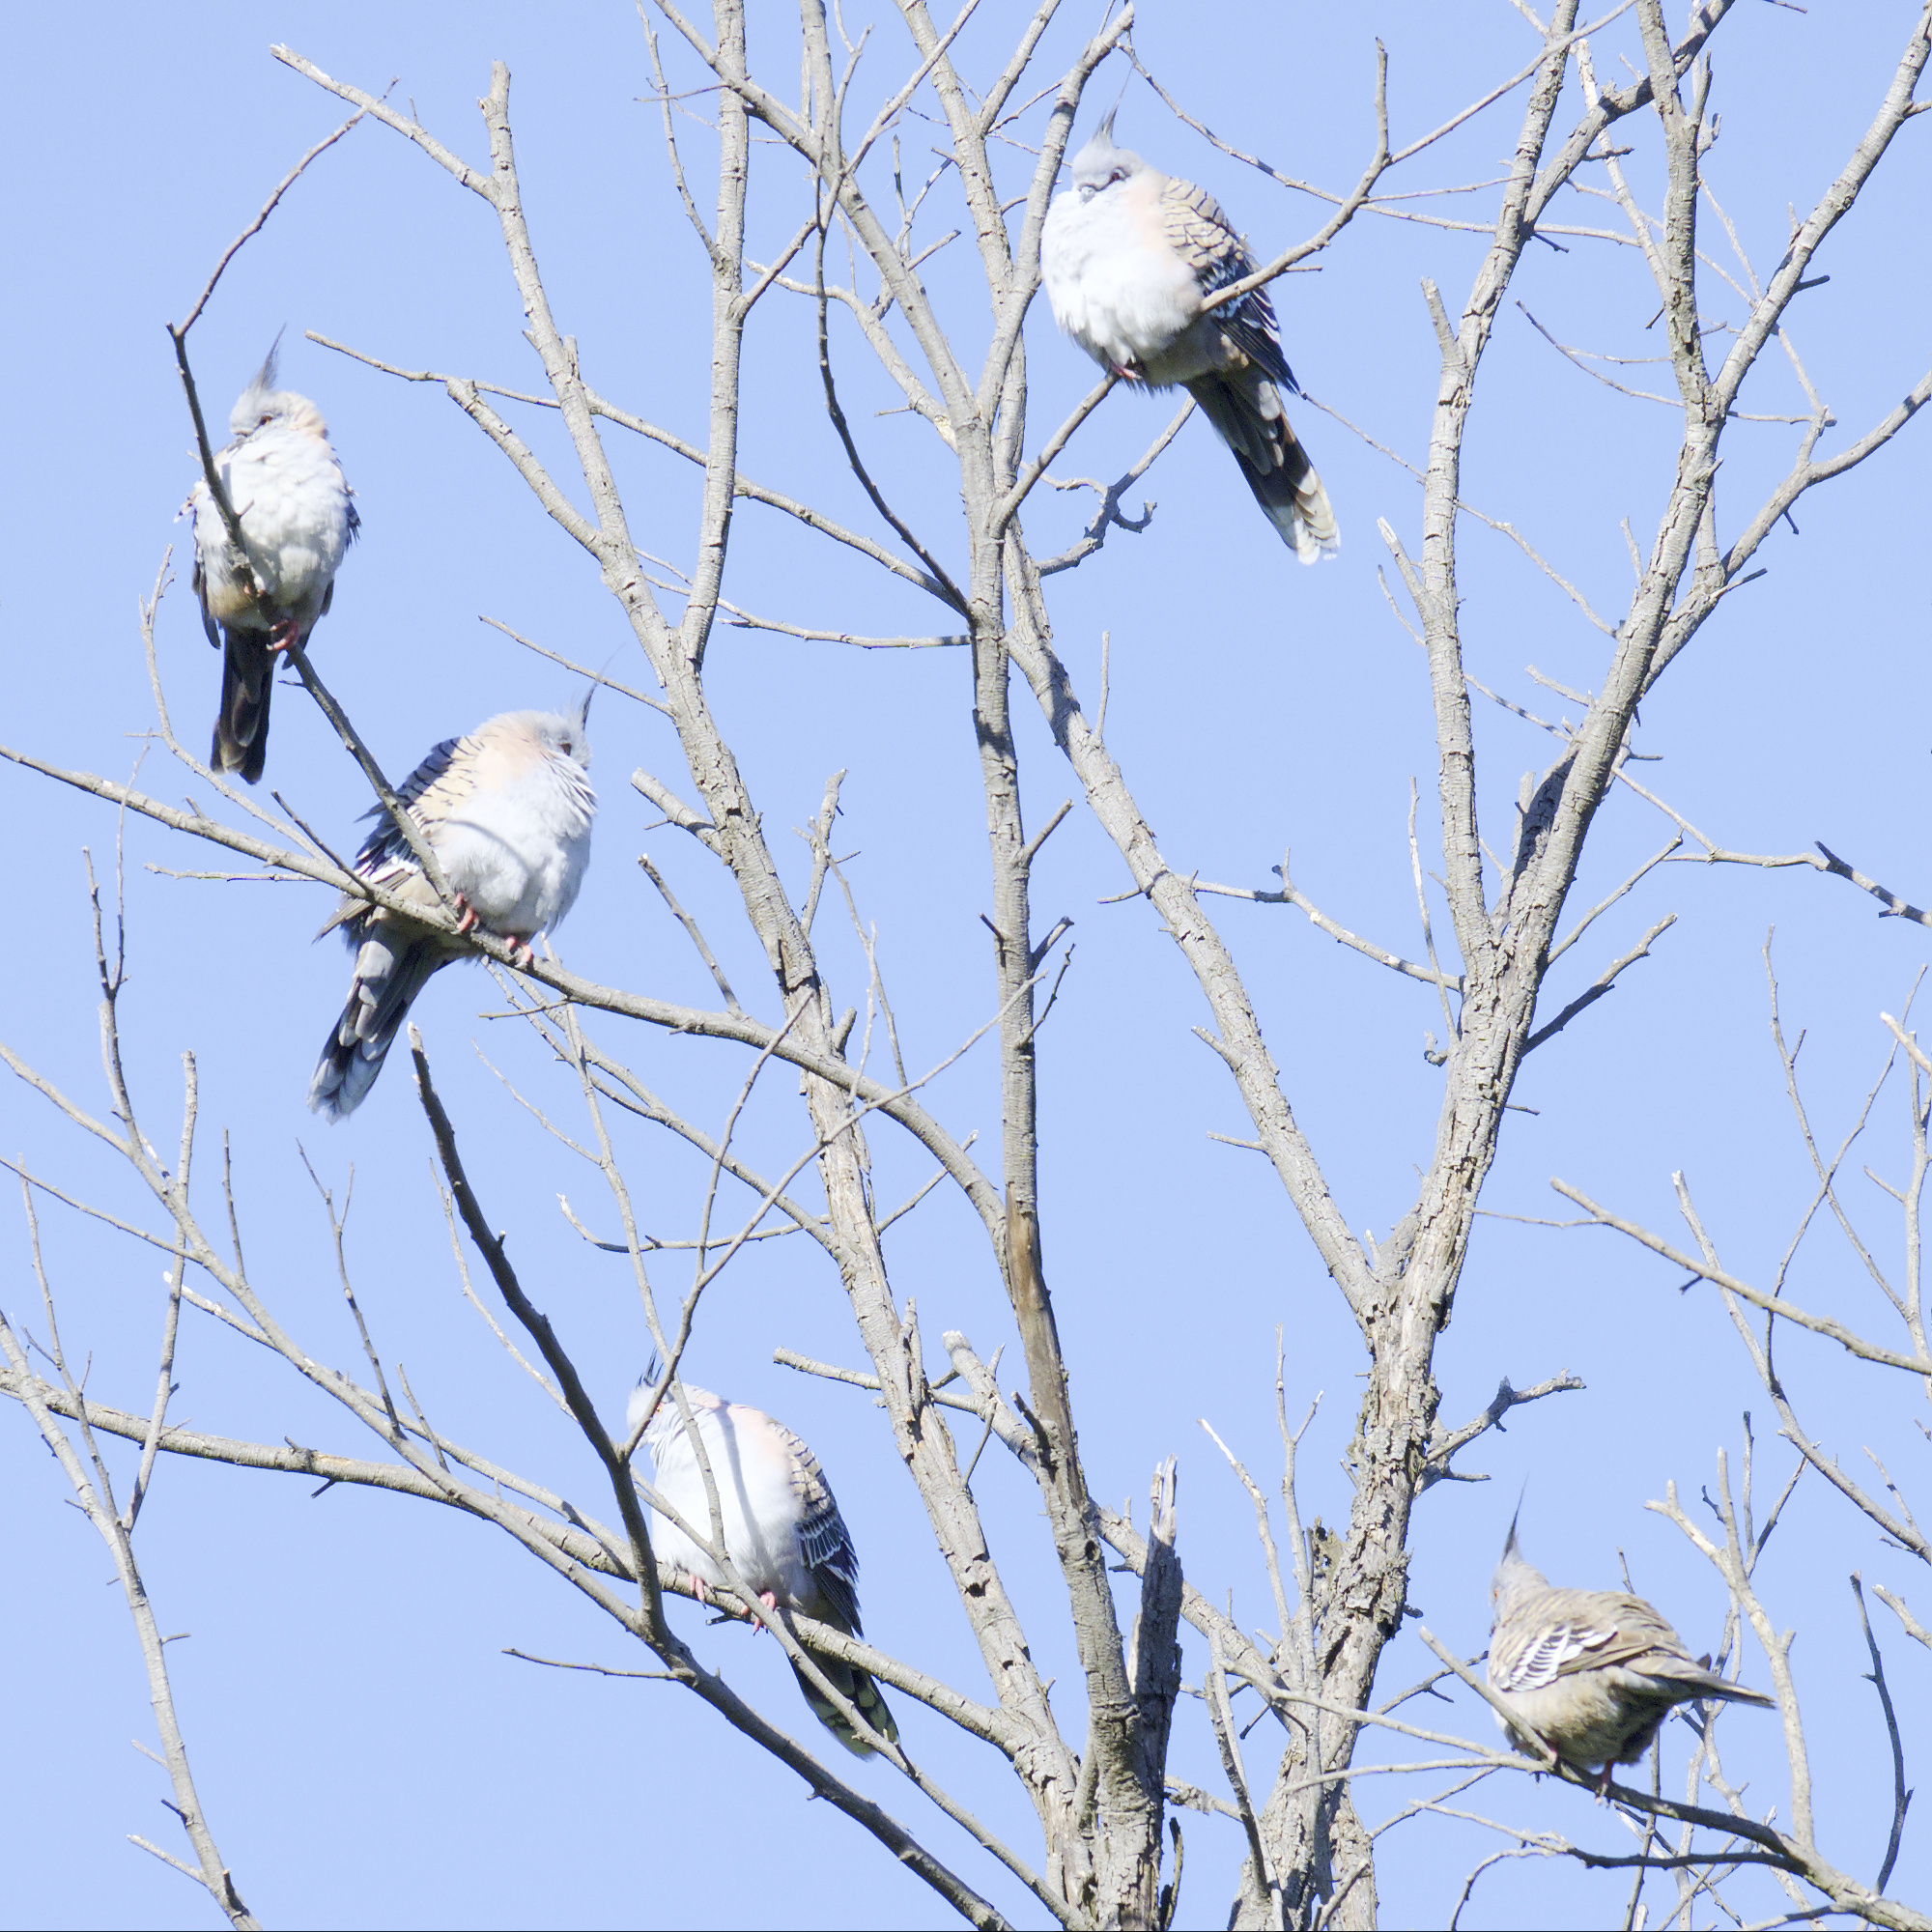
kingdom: Animalia
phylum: Chordata
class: Aves
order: Columbiformes
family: Columbidae
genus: Ocyphaps
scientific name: Ocyphaps lophotes
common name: Crested pigeon
